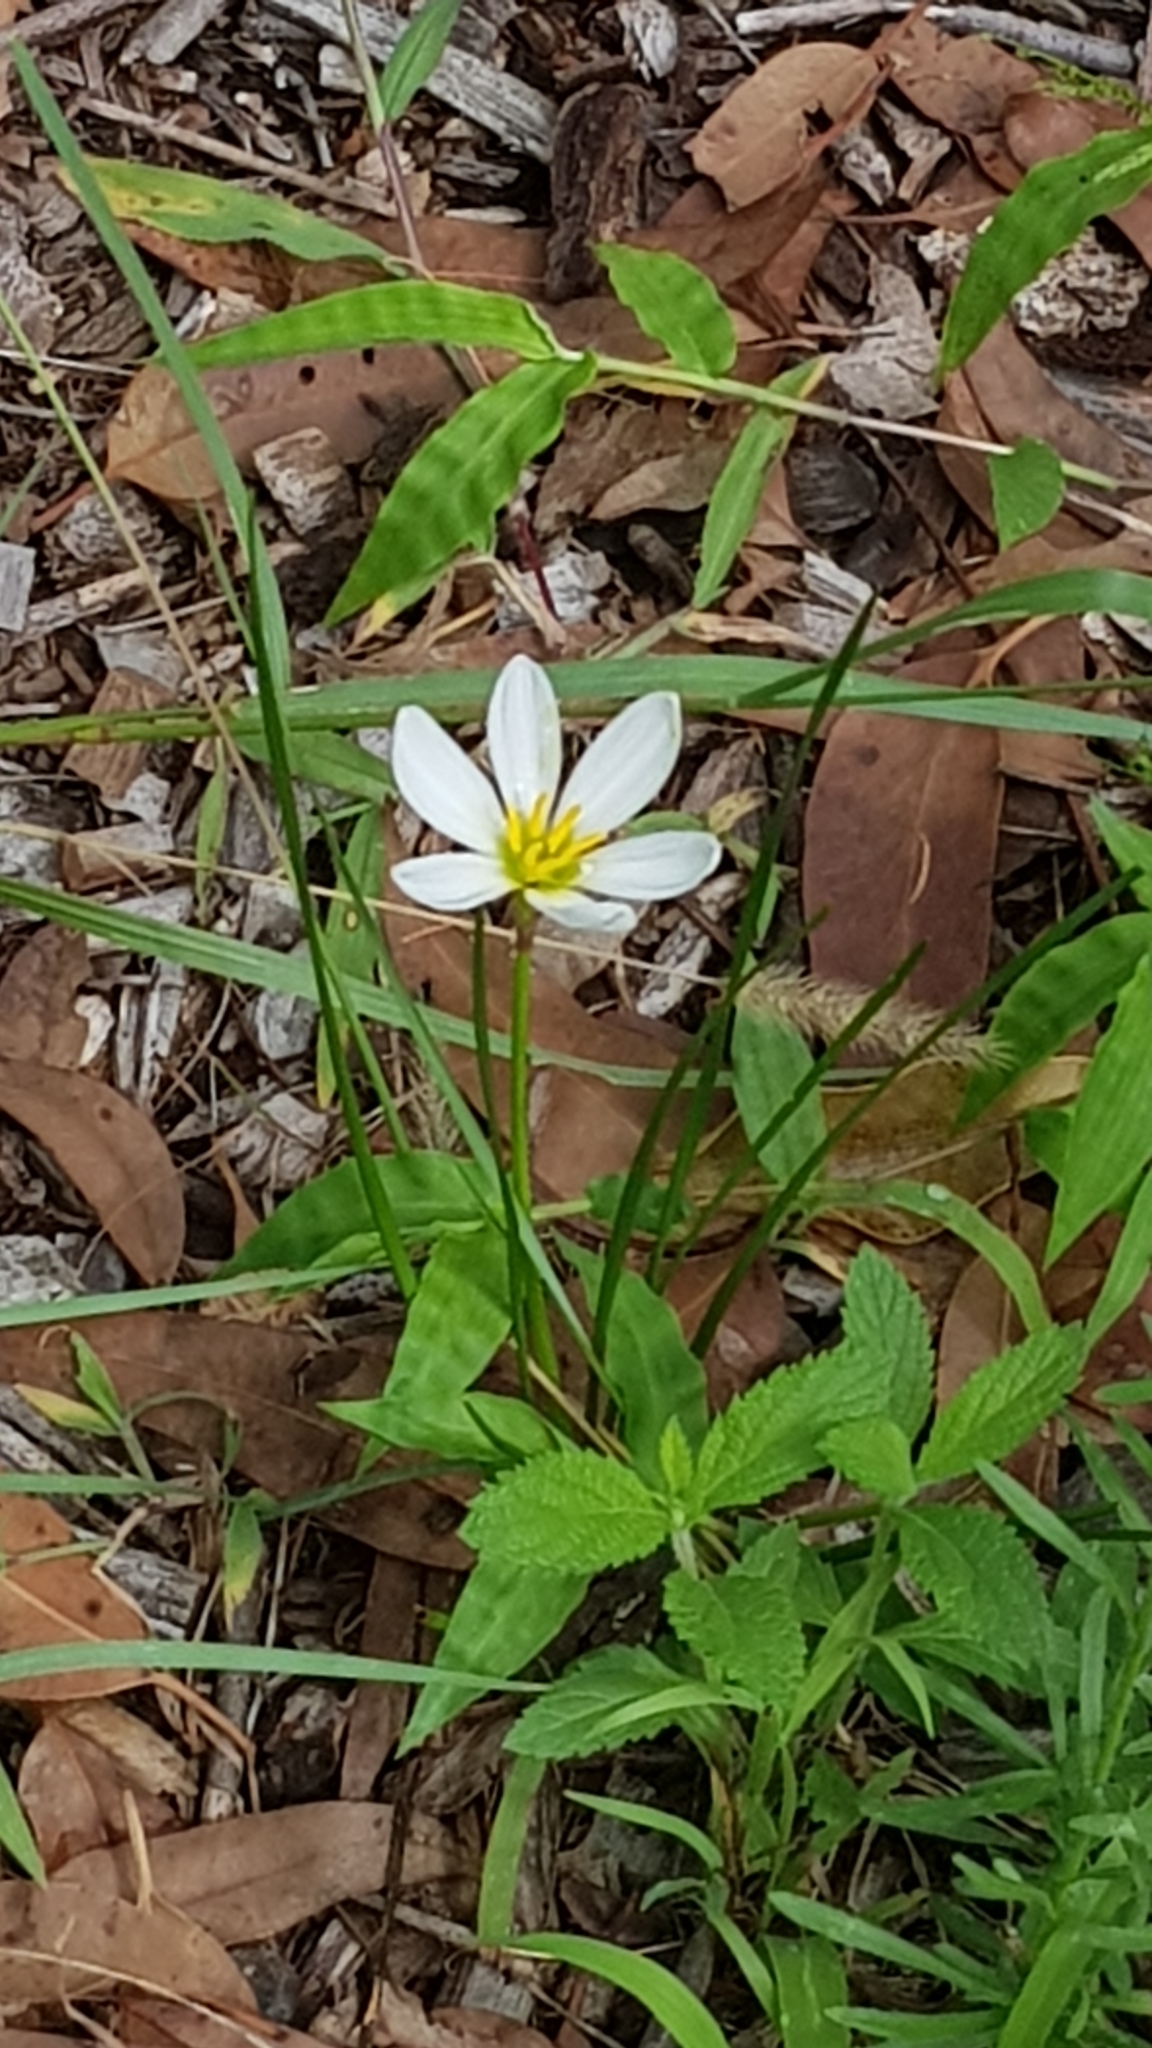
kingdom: Plantae
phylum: Tracheophyta
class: Liliopsida
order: Asparagales
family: Amaryllidaceae
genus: Zephyranthes
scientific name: Zephyranthes candida
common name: Autumn zephyrlily
